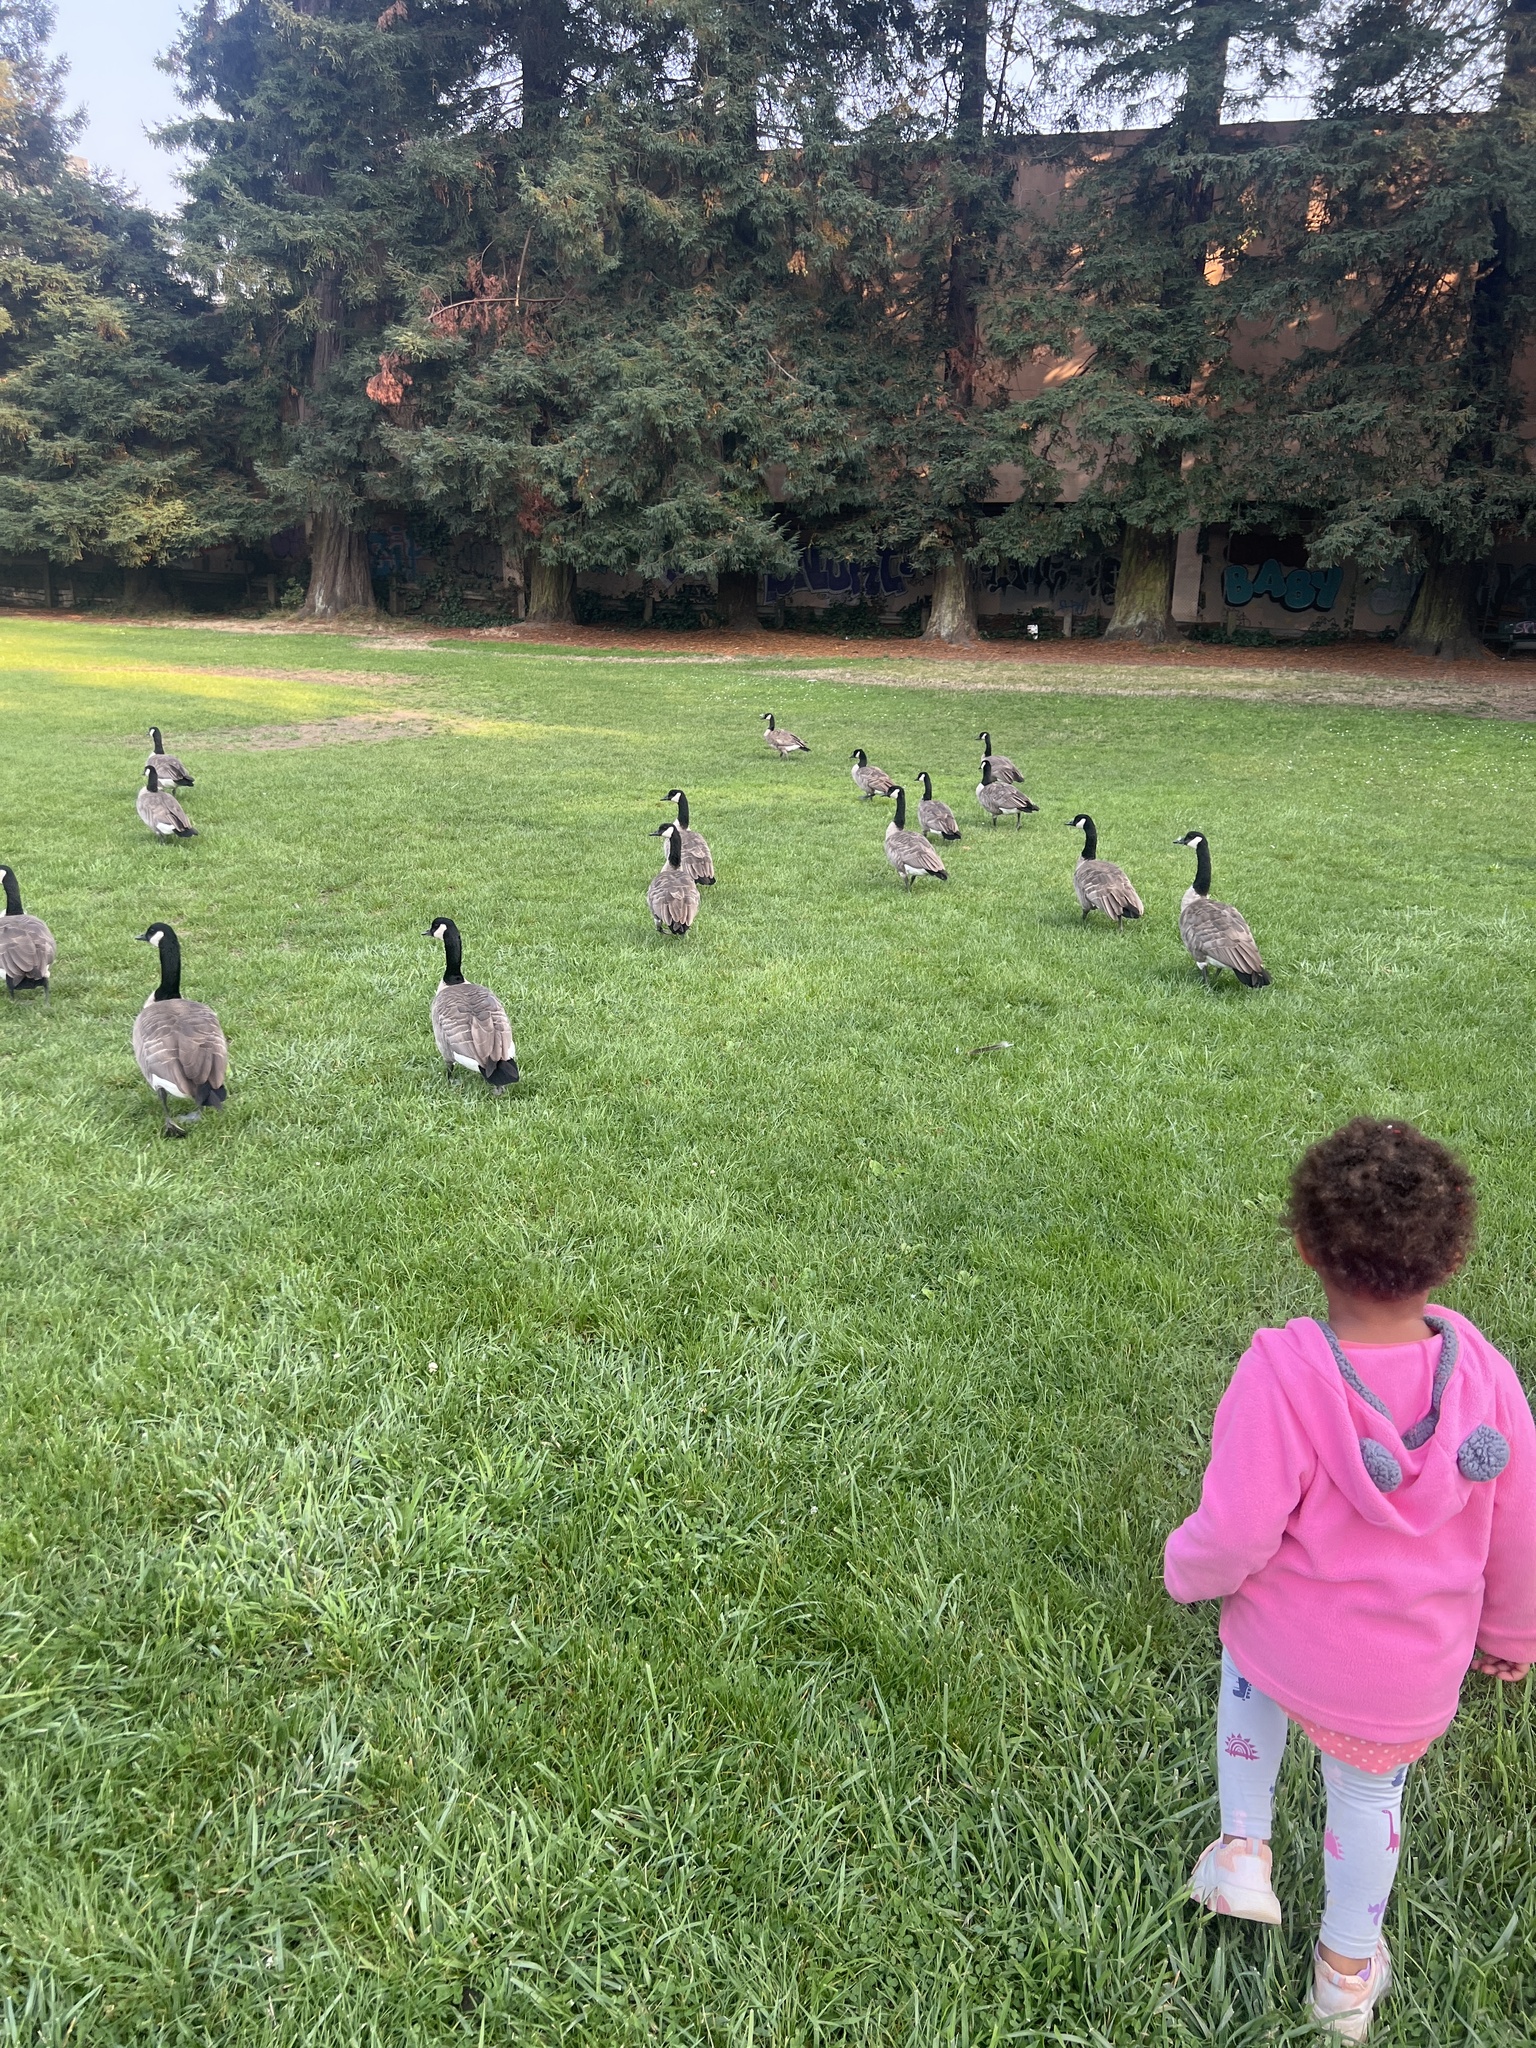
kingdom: Animalia
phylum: Chordata
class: Aves
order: Anseriformes
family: Anatidae
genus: Branta
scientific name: Branta canadensis
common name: Canada goose
